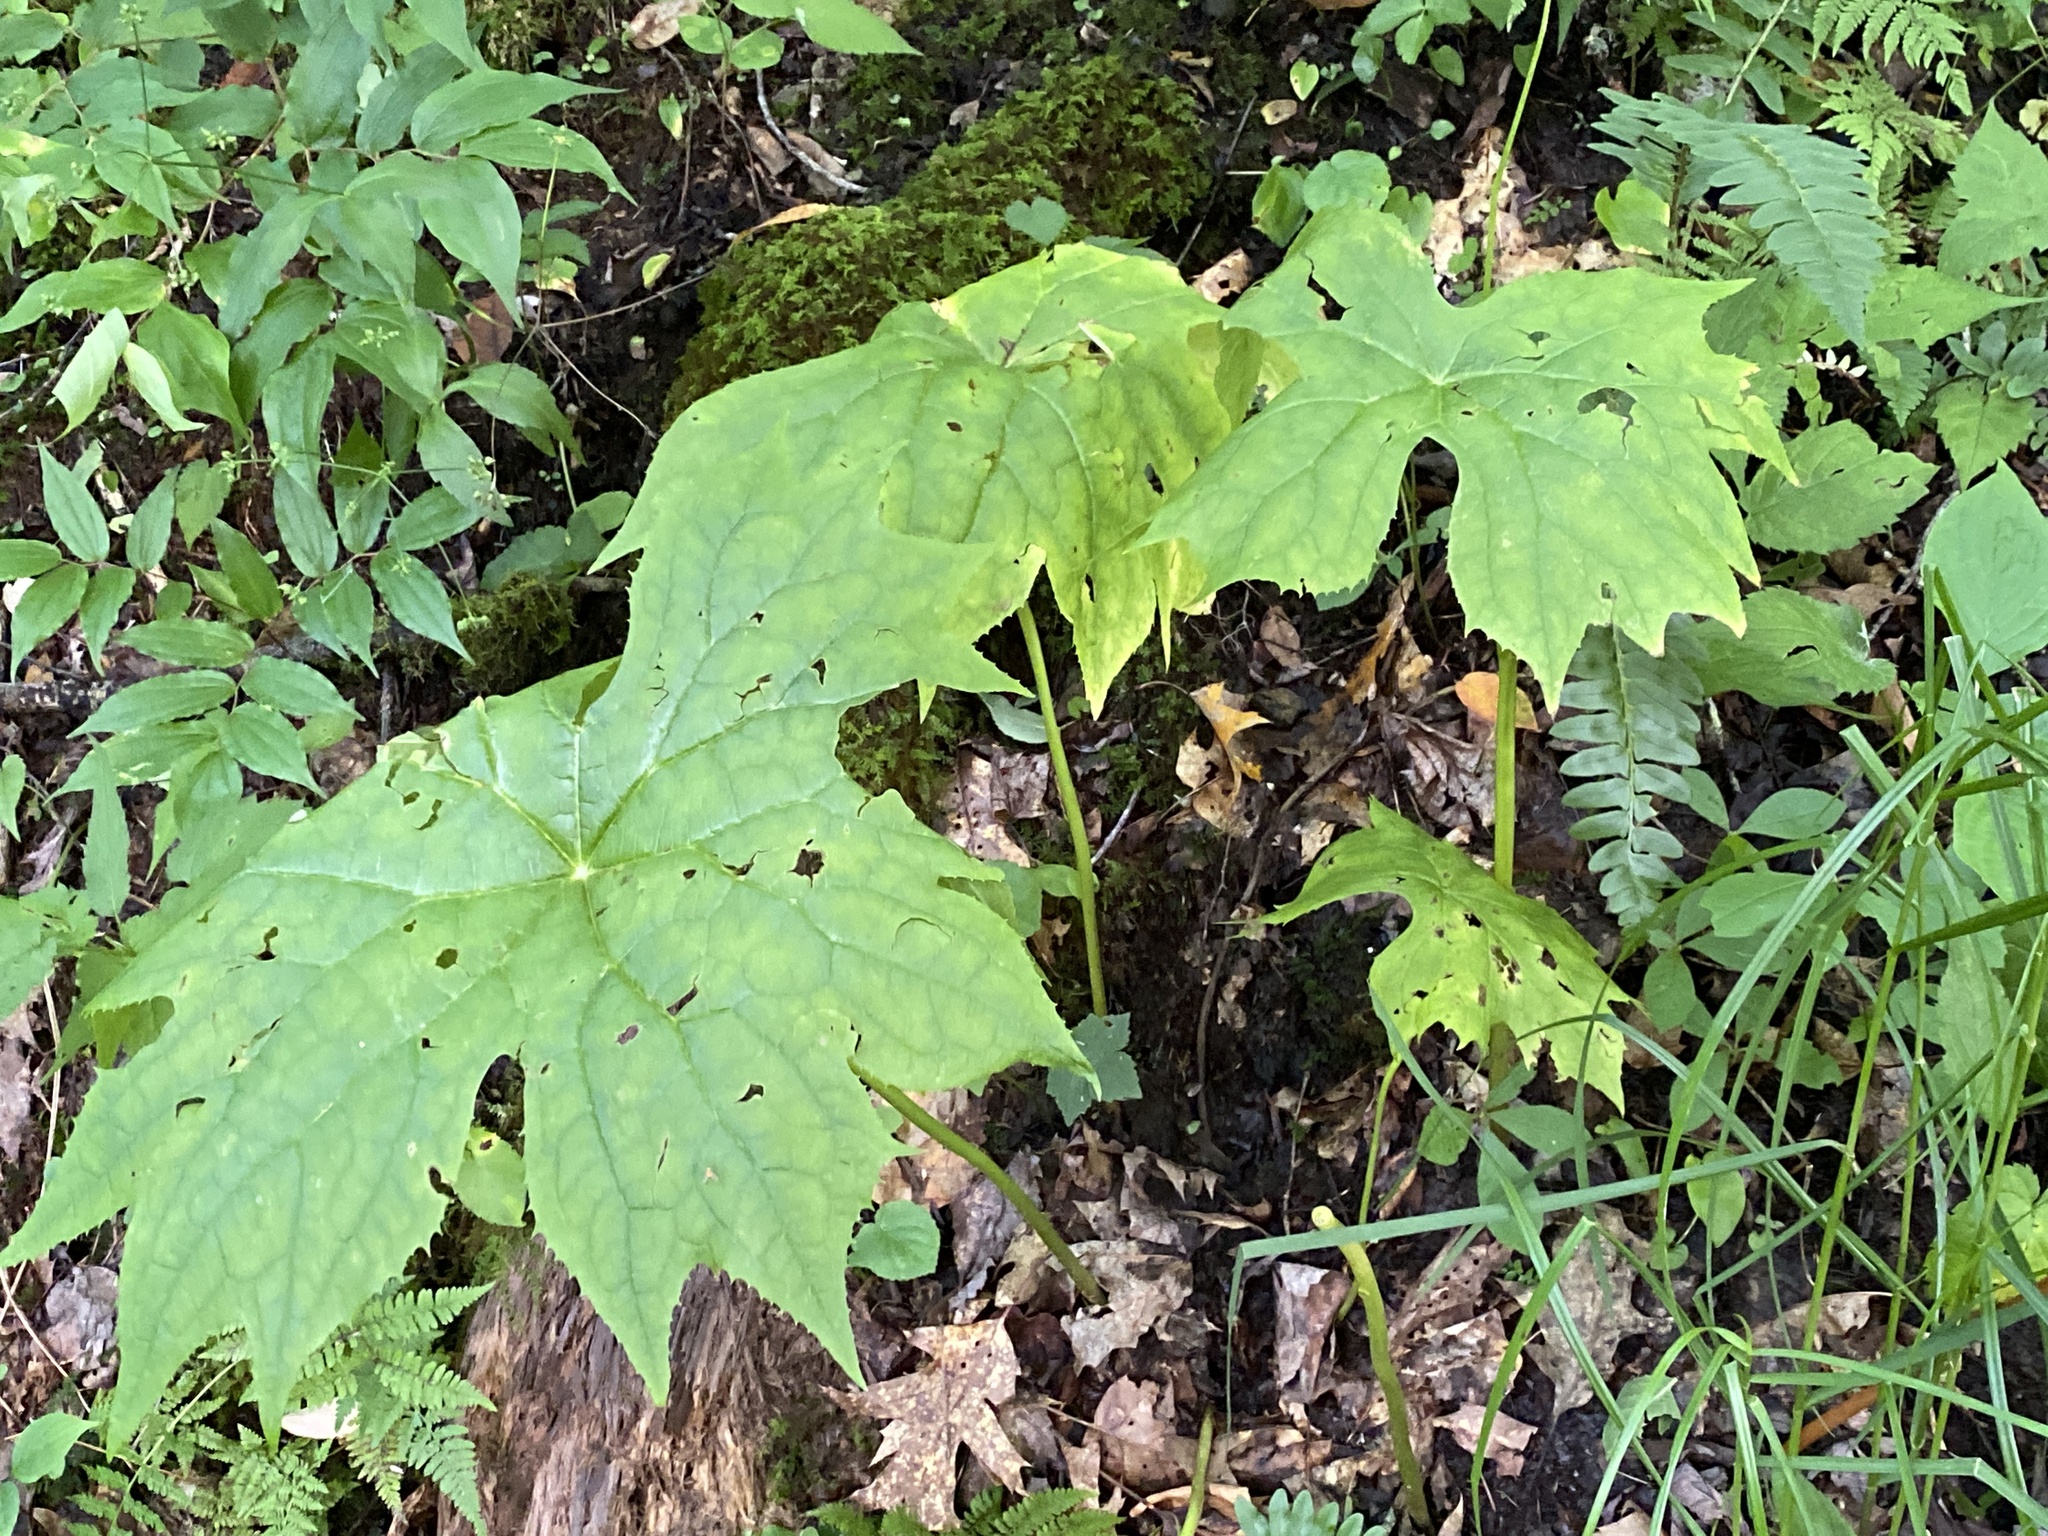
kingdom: Plantae
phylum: Tracheophyta
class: Magnoliopsida
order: Ranunculales
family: Berberidaceae
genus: Diphylleia
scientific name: Diphylleia cymosa
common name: Umbrella-leaf
